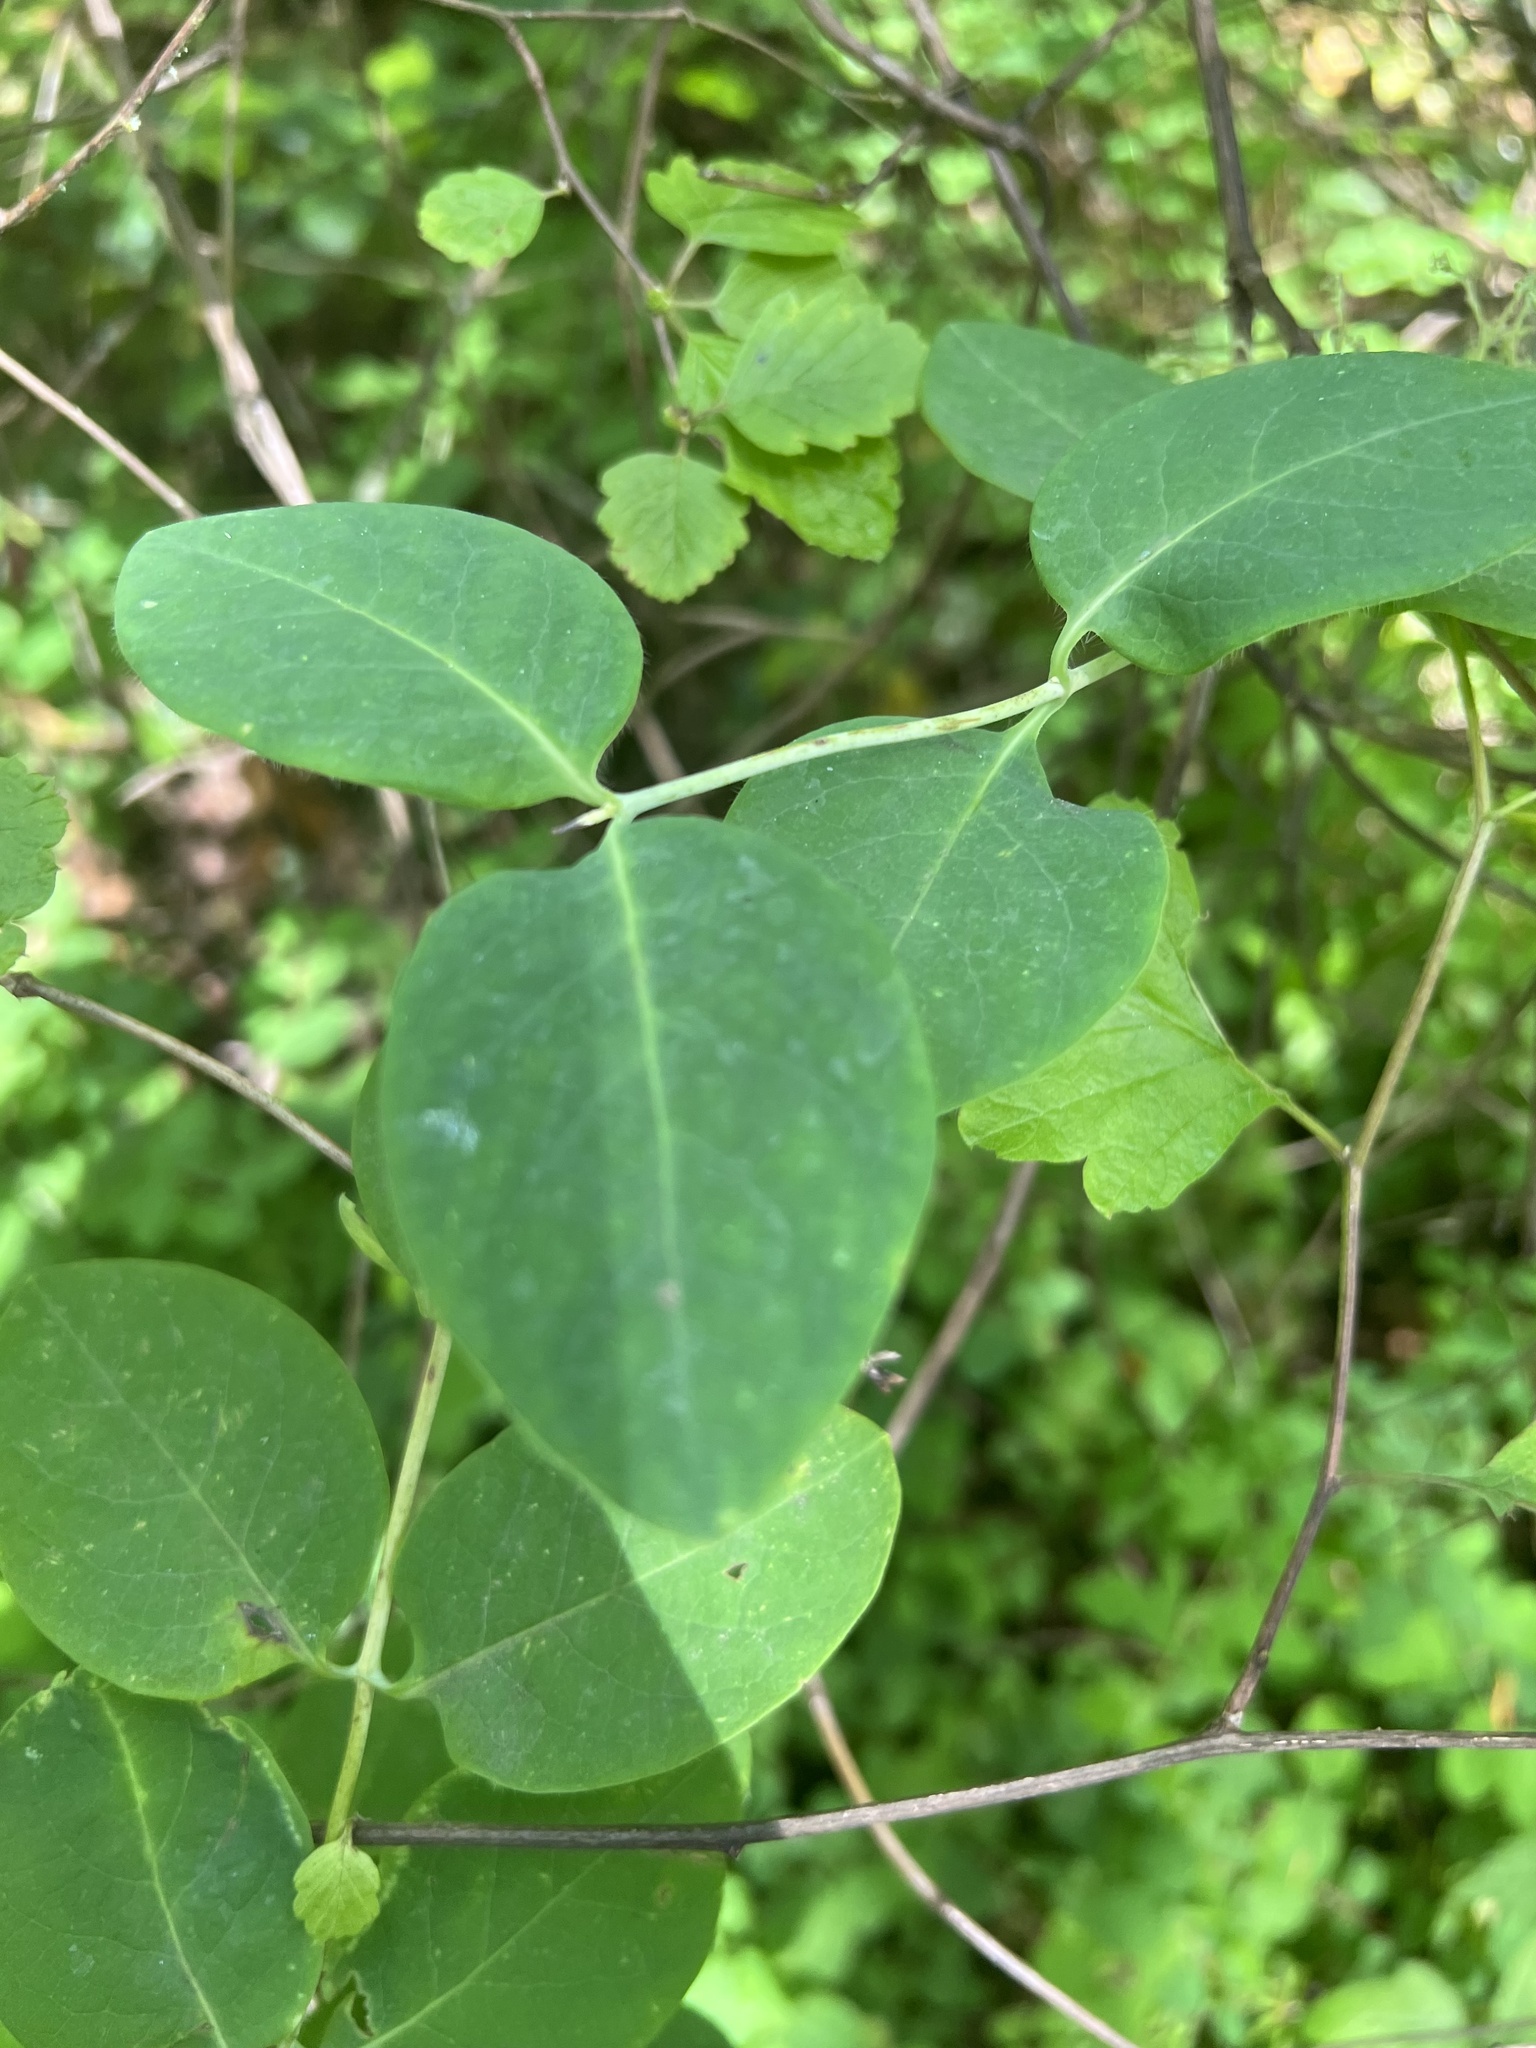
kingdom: Plantae
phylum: Tracheophyta
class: Magnoliopsida
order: Dipsacales
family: Caprifoliaceae
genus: Lonicera
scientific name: Lonicera ciliosa
